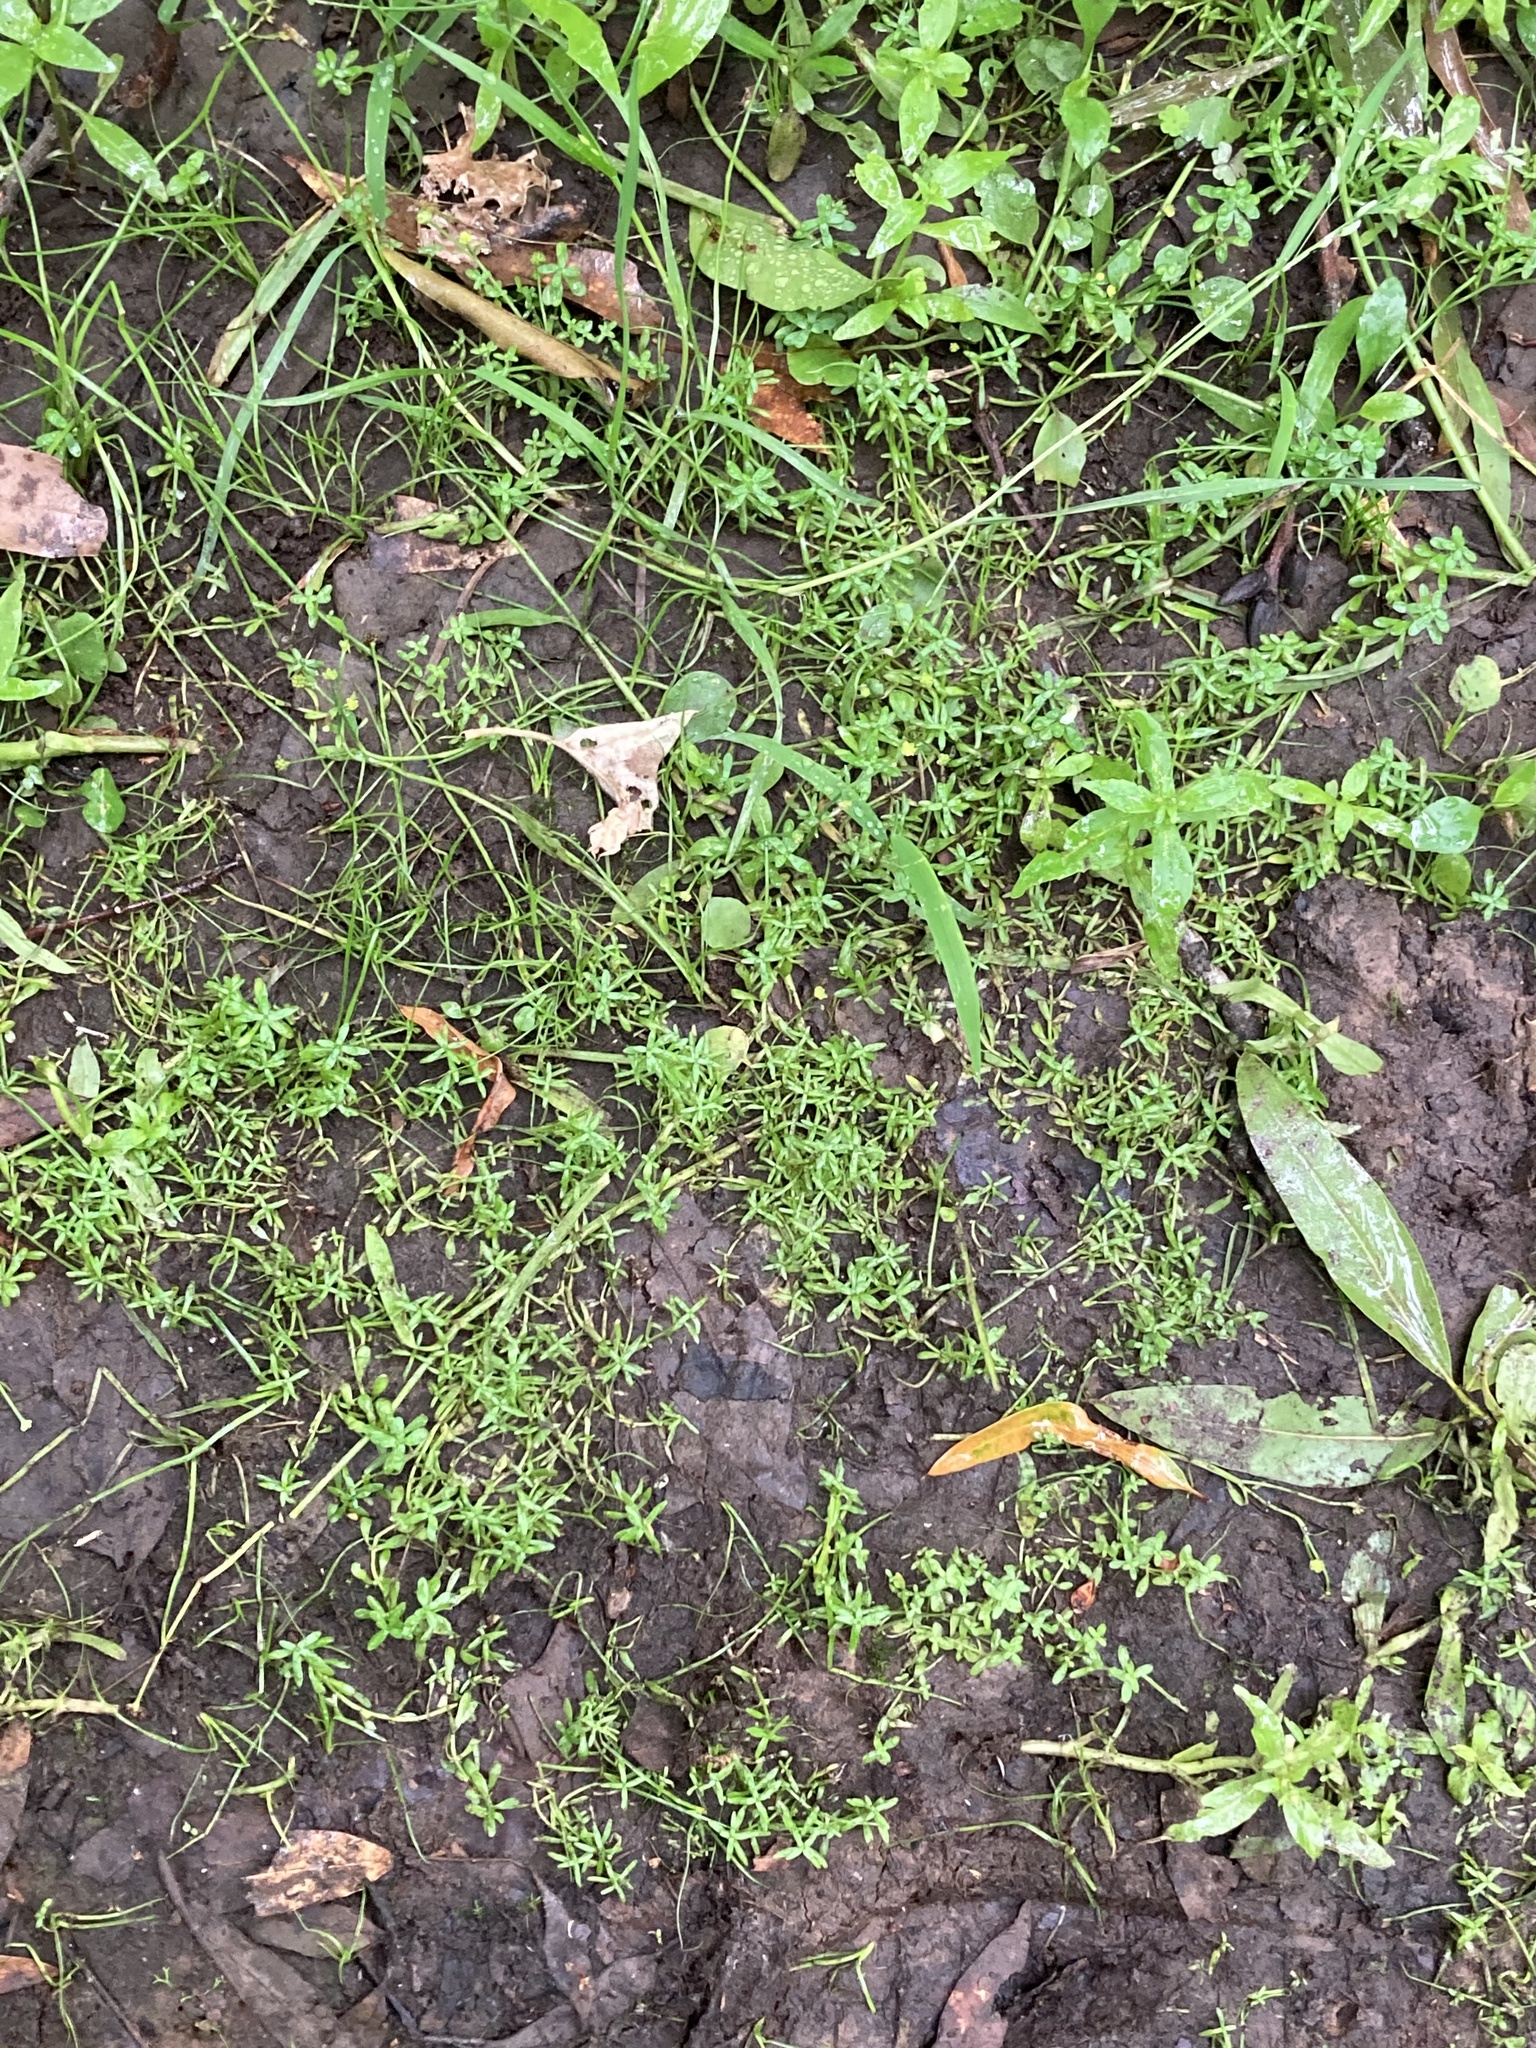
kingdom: Plantae
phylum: Tracheophyta
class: Magnoliopsida
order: Lamiales
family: Plantaginaceae
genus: Callitriche
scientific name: Callitriche terrestris
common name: Terrestrial water-starwort
